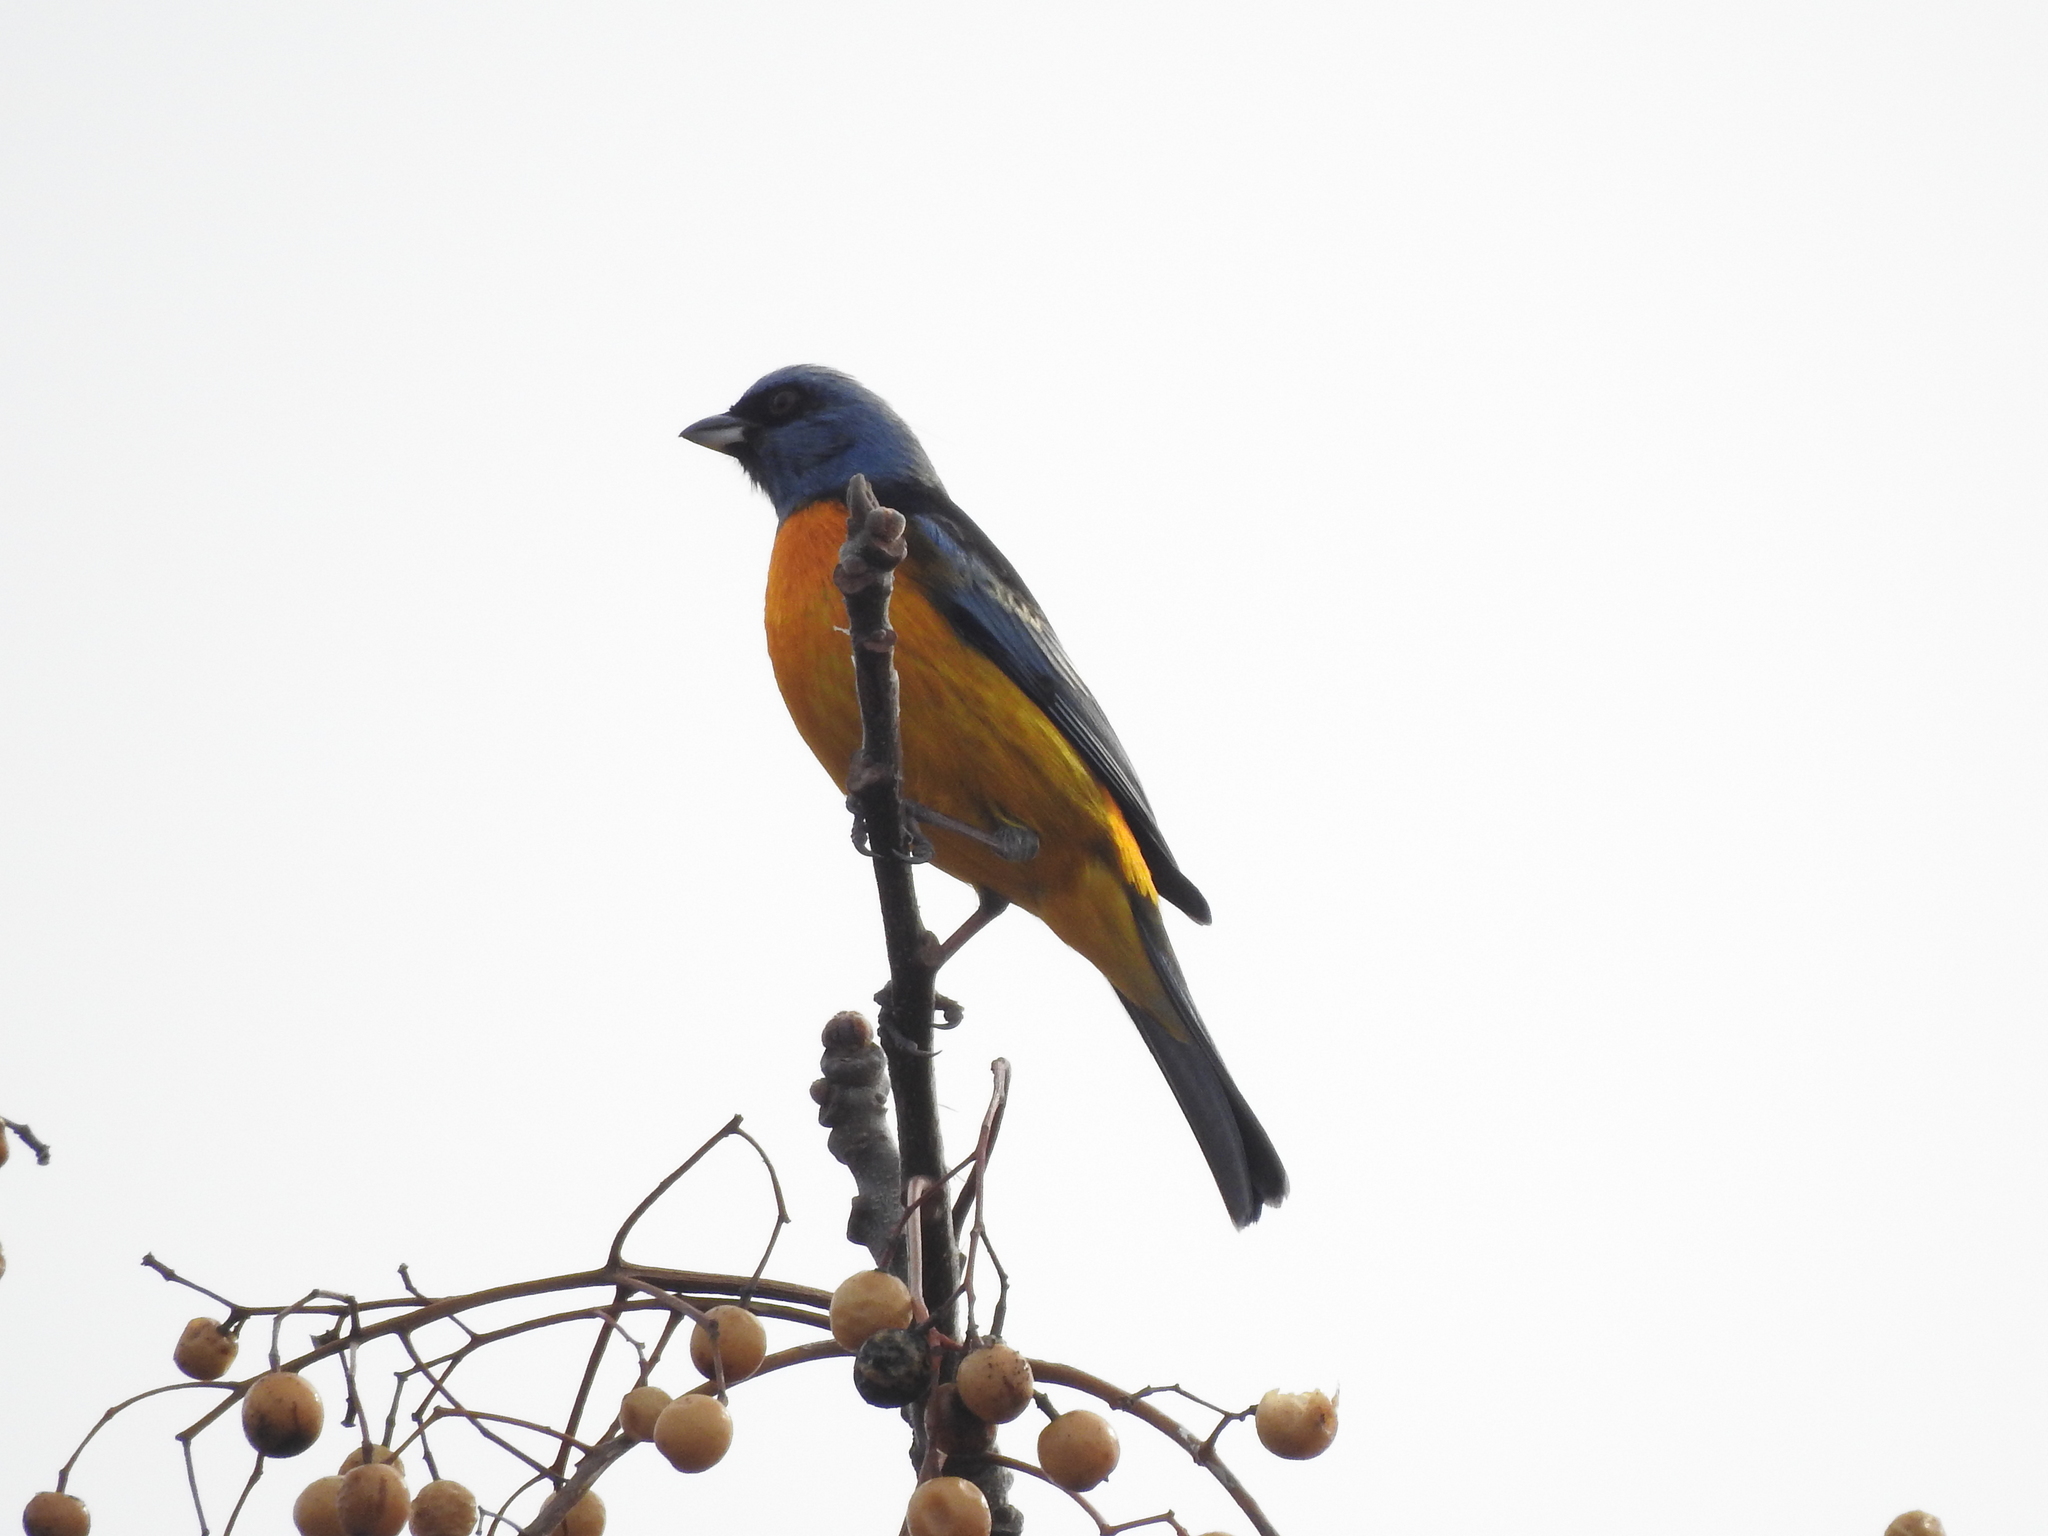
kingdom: Animalia
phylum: Chordata
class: Aves
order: Passeriformes
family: Thraupidae
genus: Rauenia
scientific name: Rauenia bonariensis
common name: Blue-and-yellow tanager
